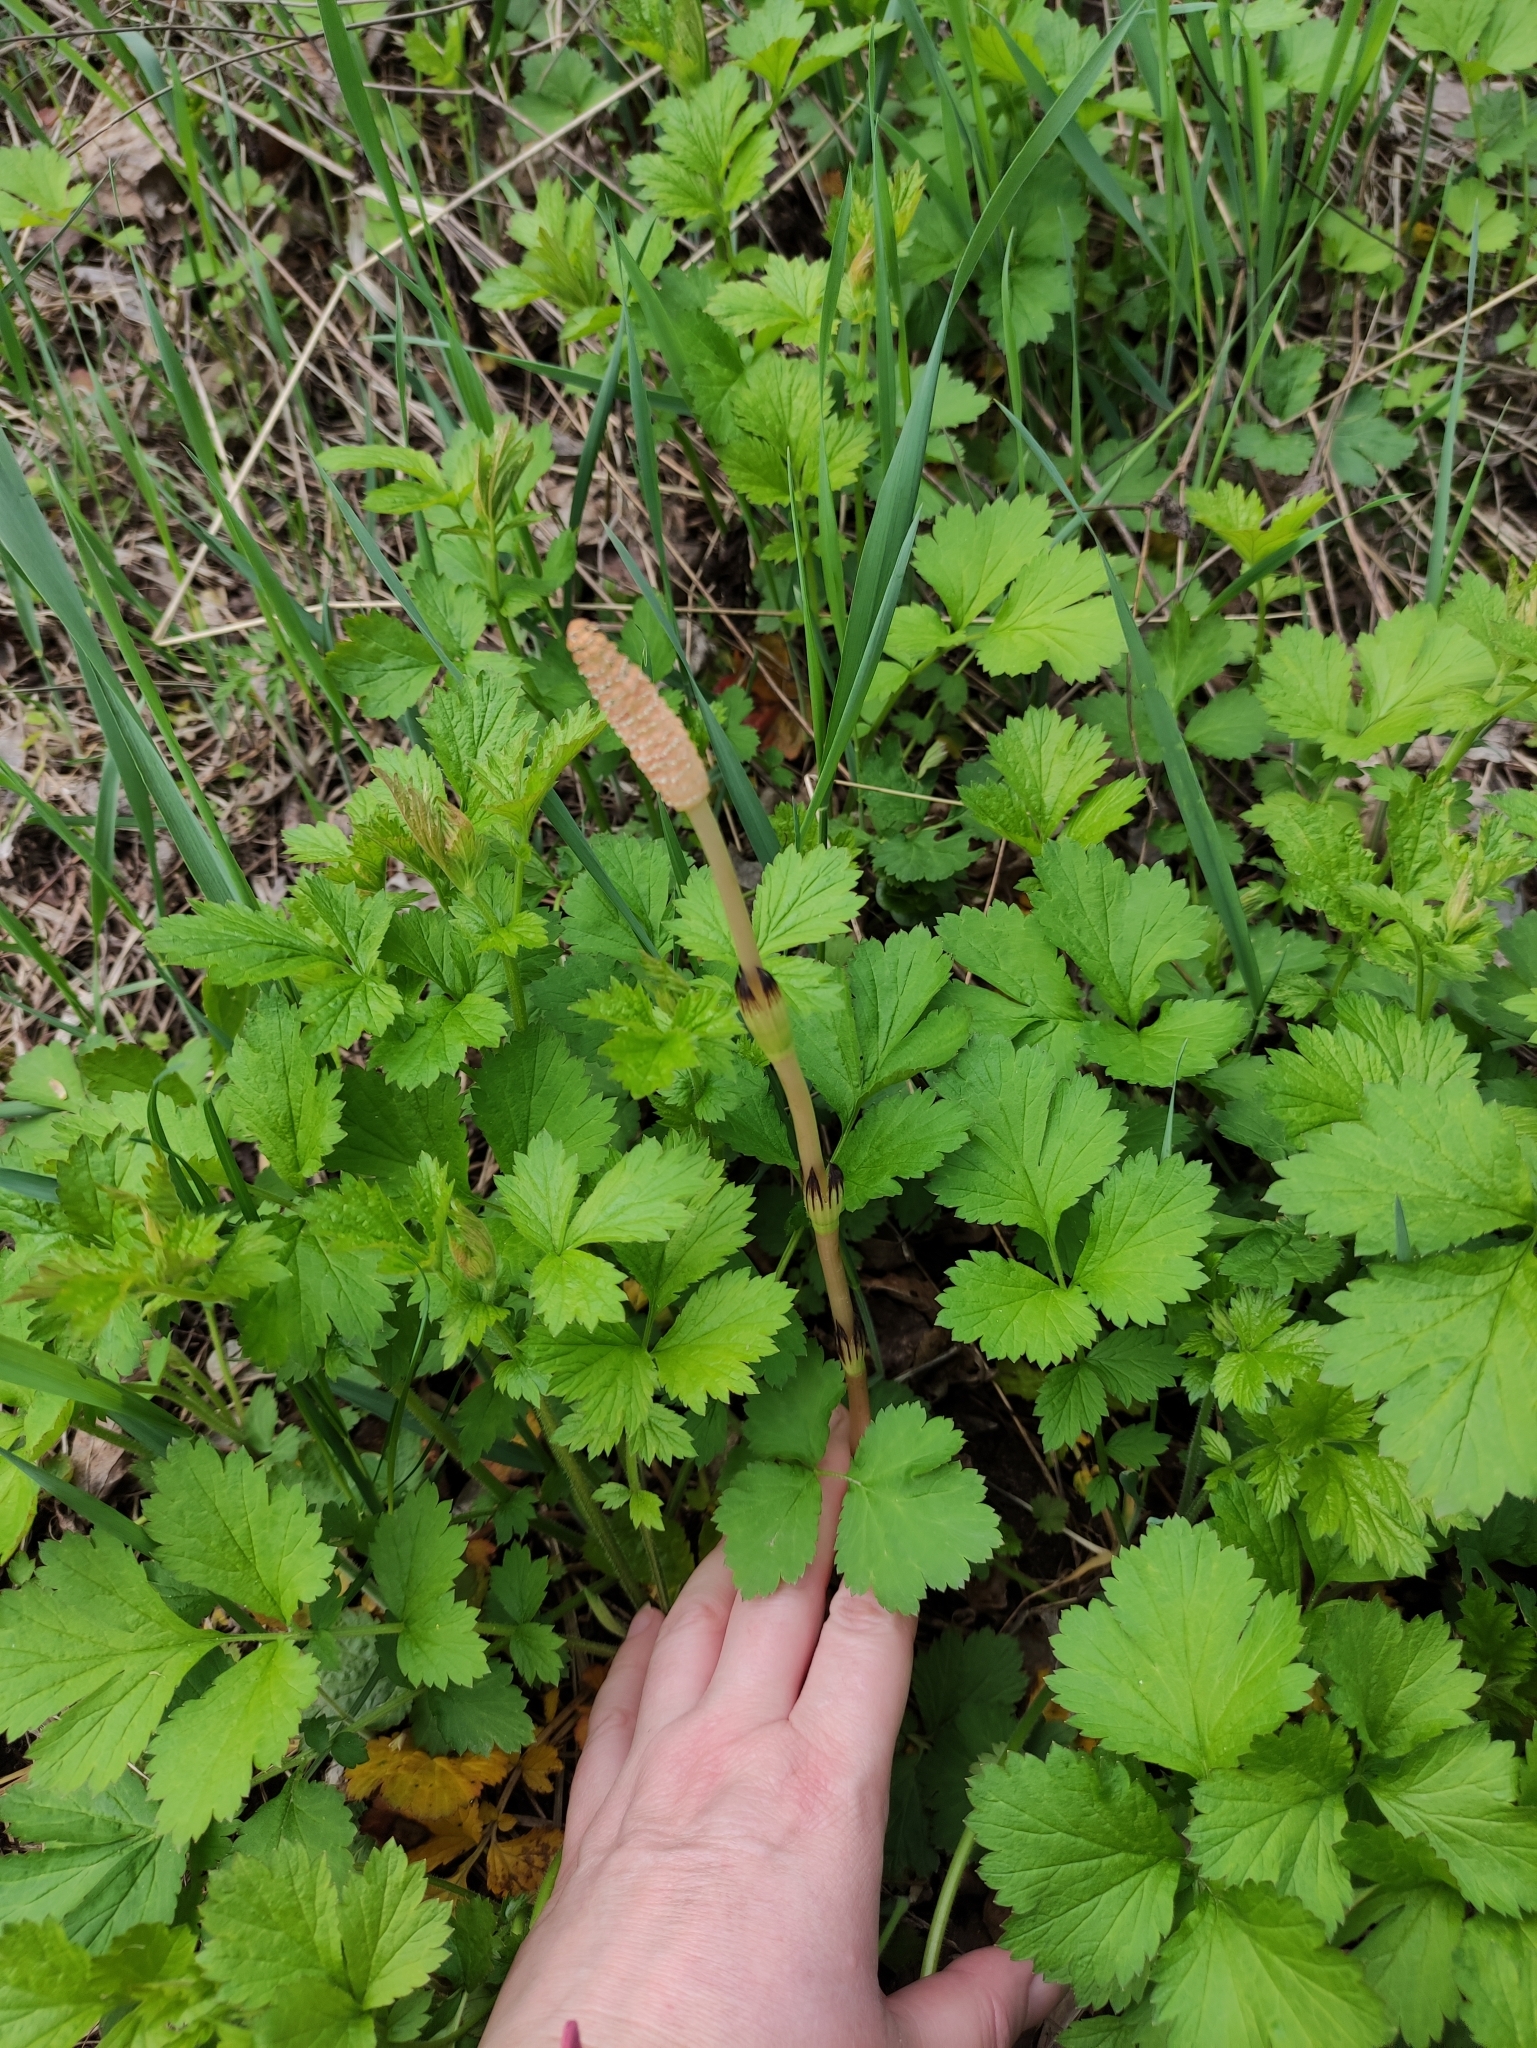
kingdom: Plantae
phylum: Tracheophyta
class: Polypodiopsida
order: Equisetales
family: Equisetaceae
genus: Equisetum
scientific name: Equisetum arvense
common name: Field horsetail
